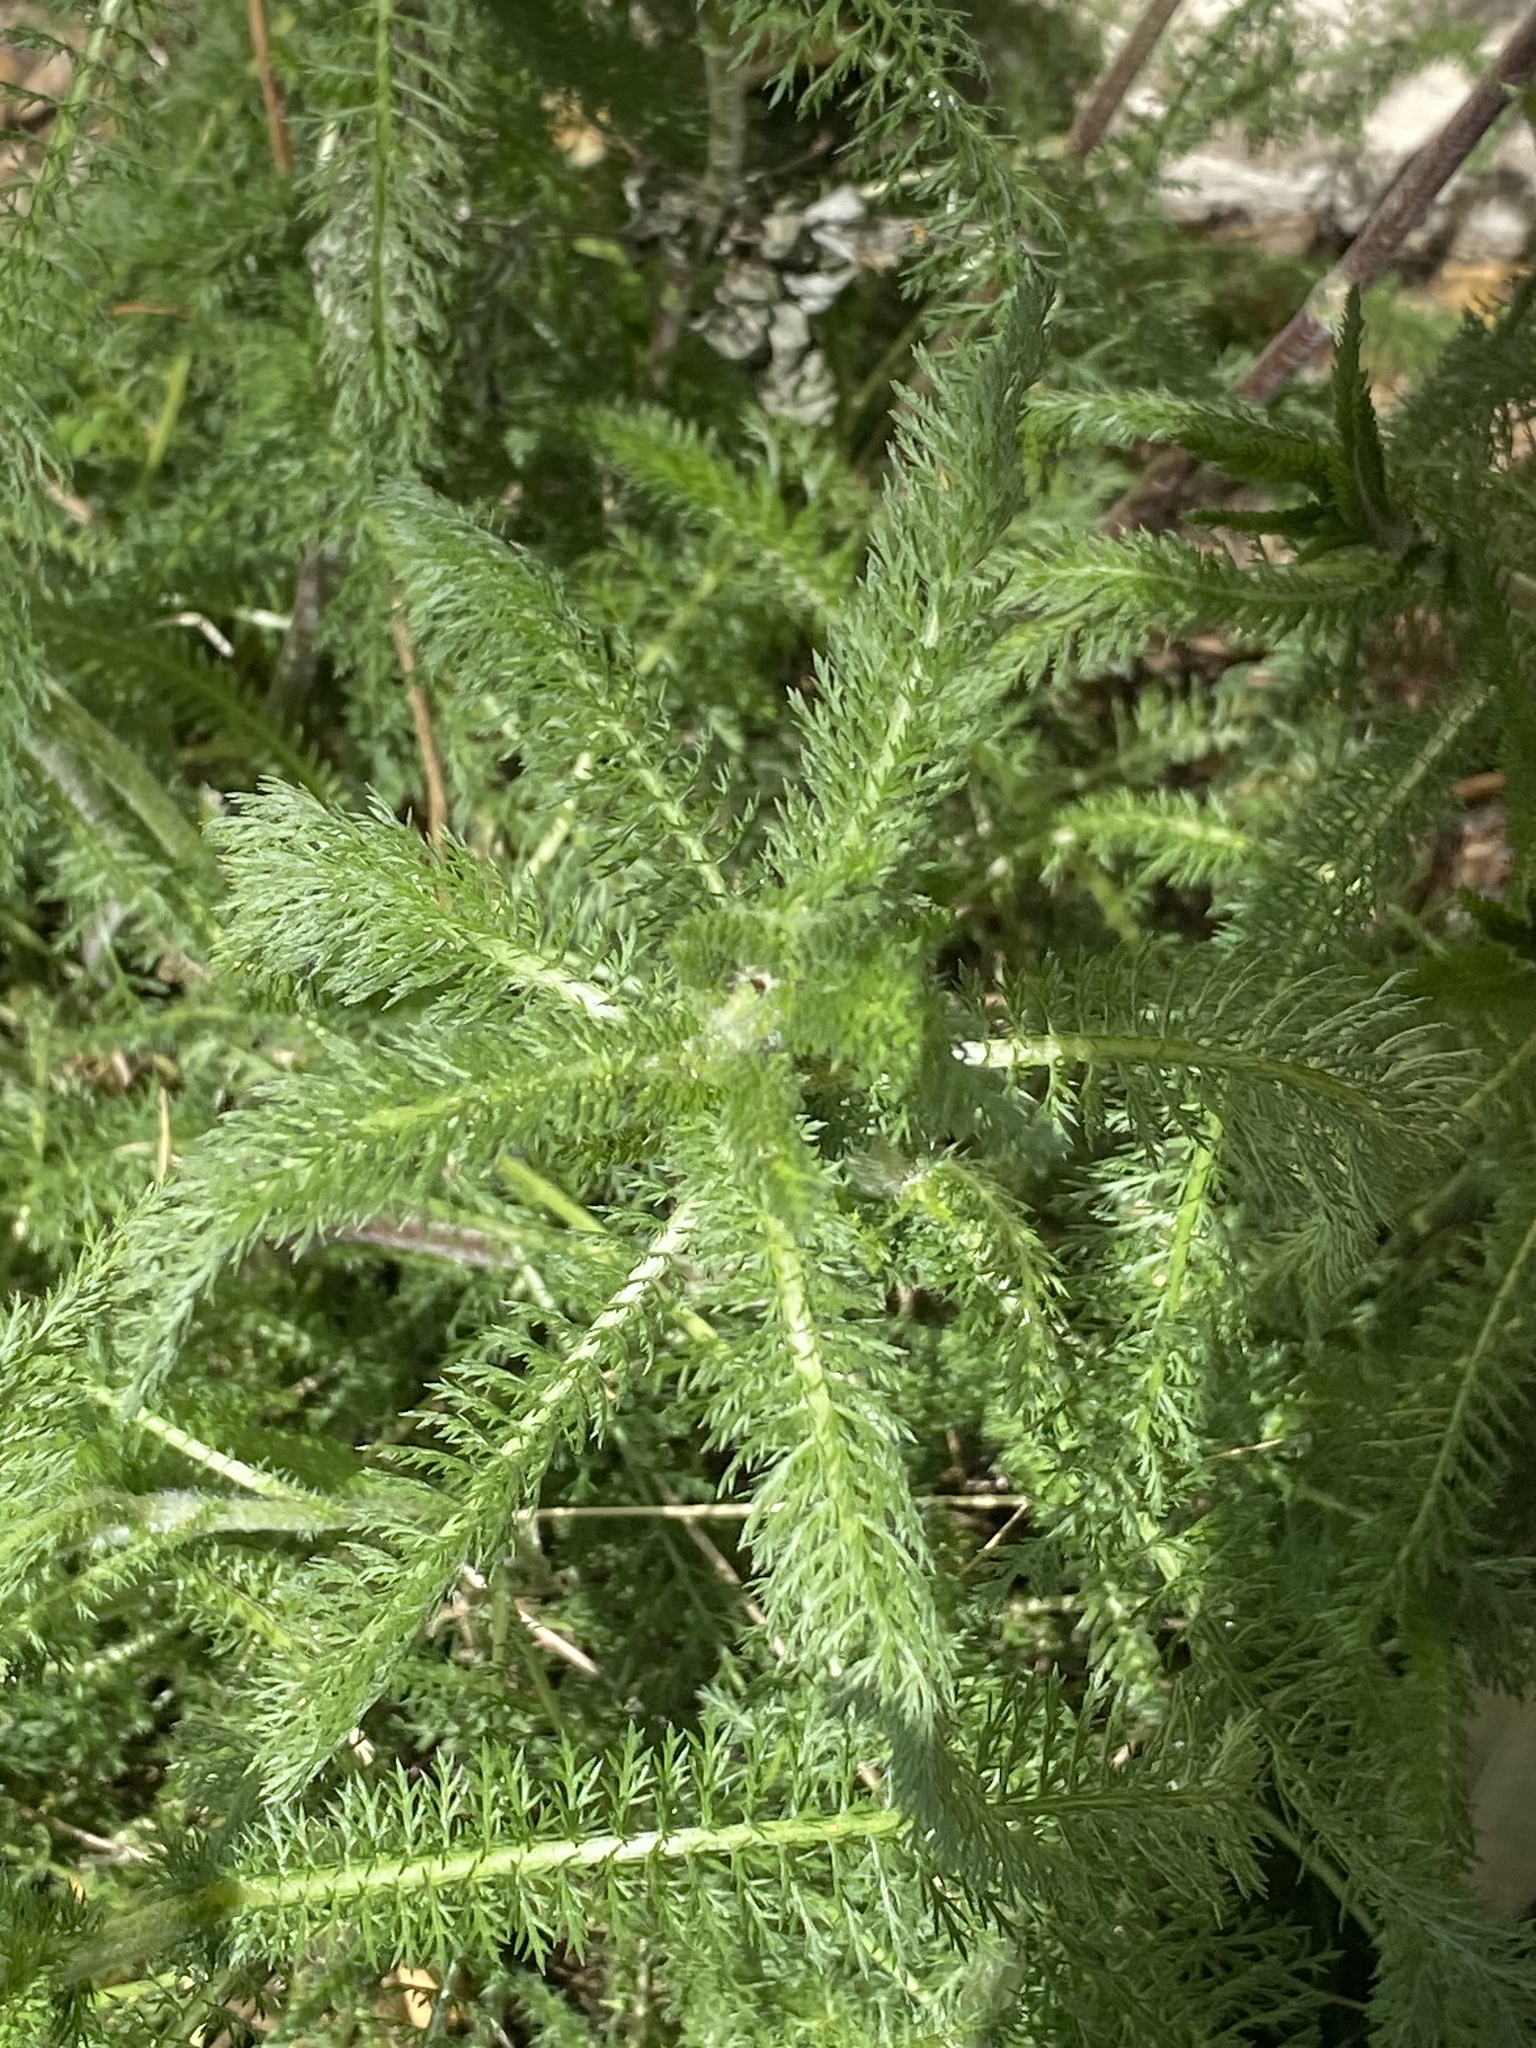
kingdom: Plantae
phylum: Tracheophyta
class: Magnoliopsida
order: Asterales
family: Asteraceae
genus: Achillea
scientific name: Achillea millefolium
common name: Yarrow
